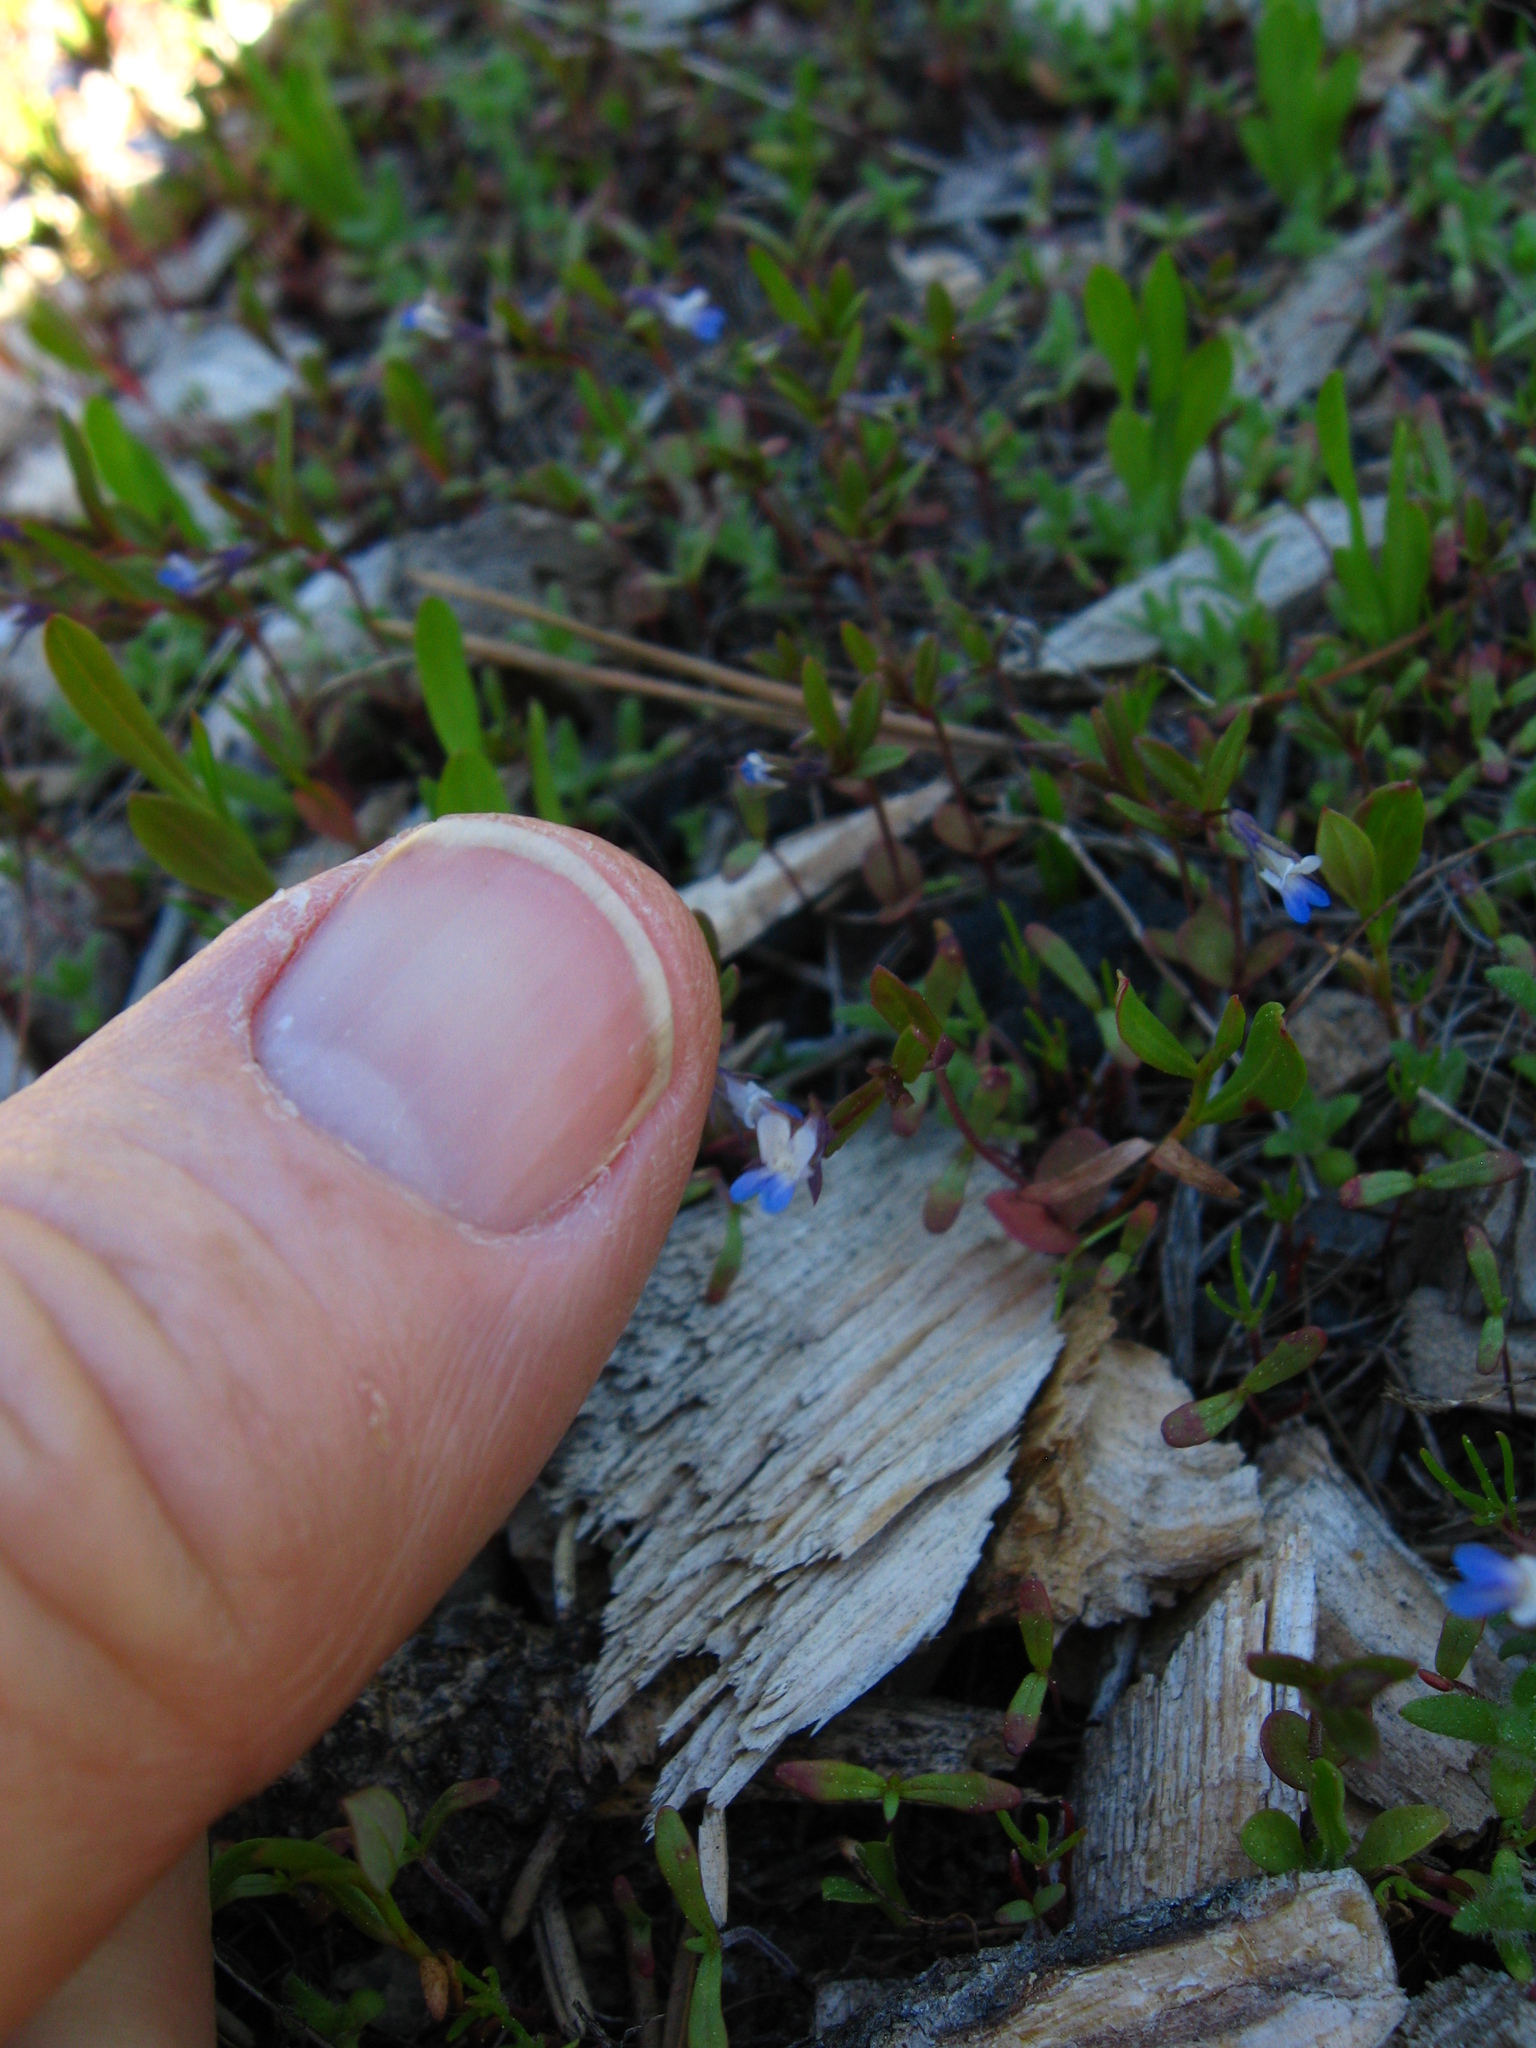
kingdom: Plantae
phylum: Tracheophyta
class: Magnoliopsida
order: Lamiales
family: Plantaginaceae
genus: Collinsia
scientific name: Collinsia parviflora
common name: Blue-lips
